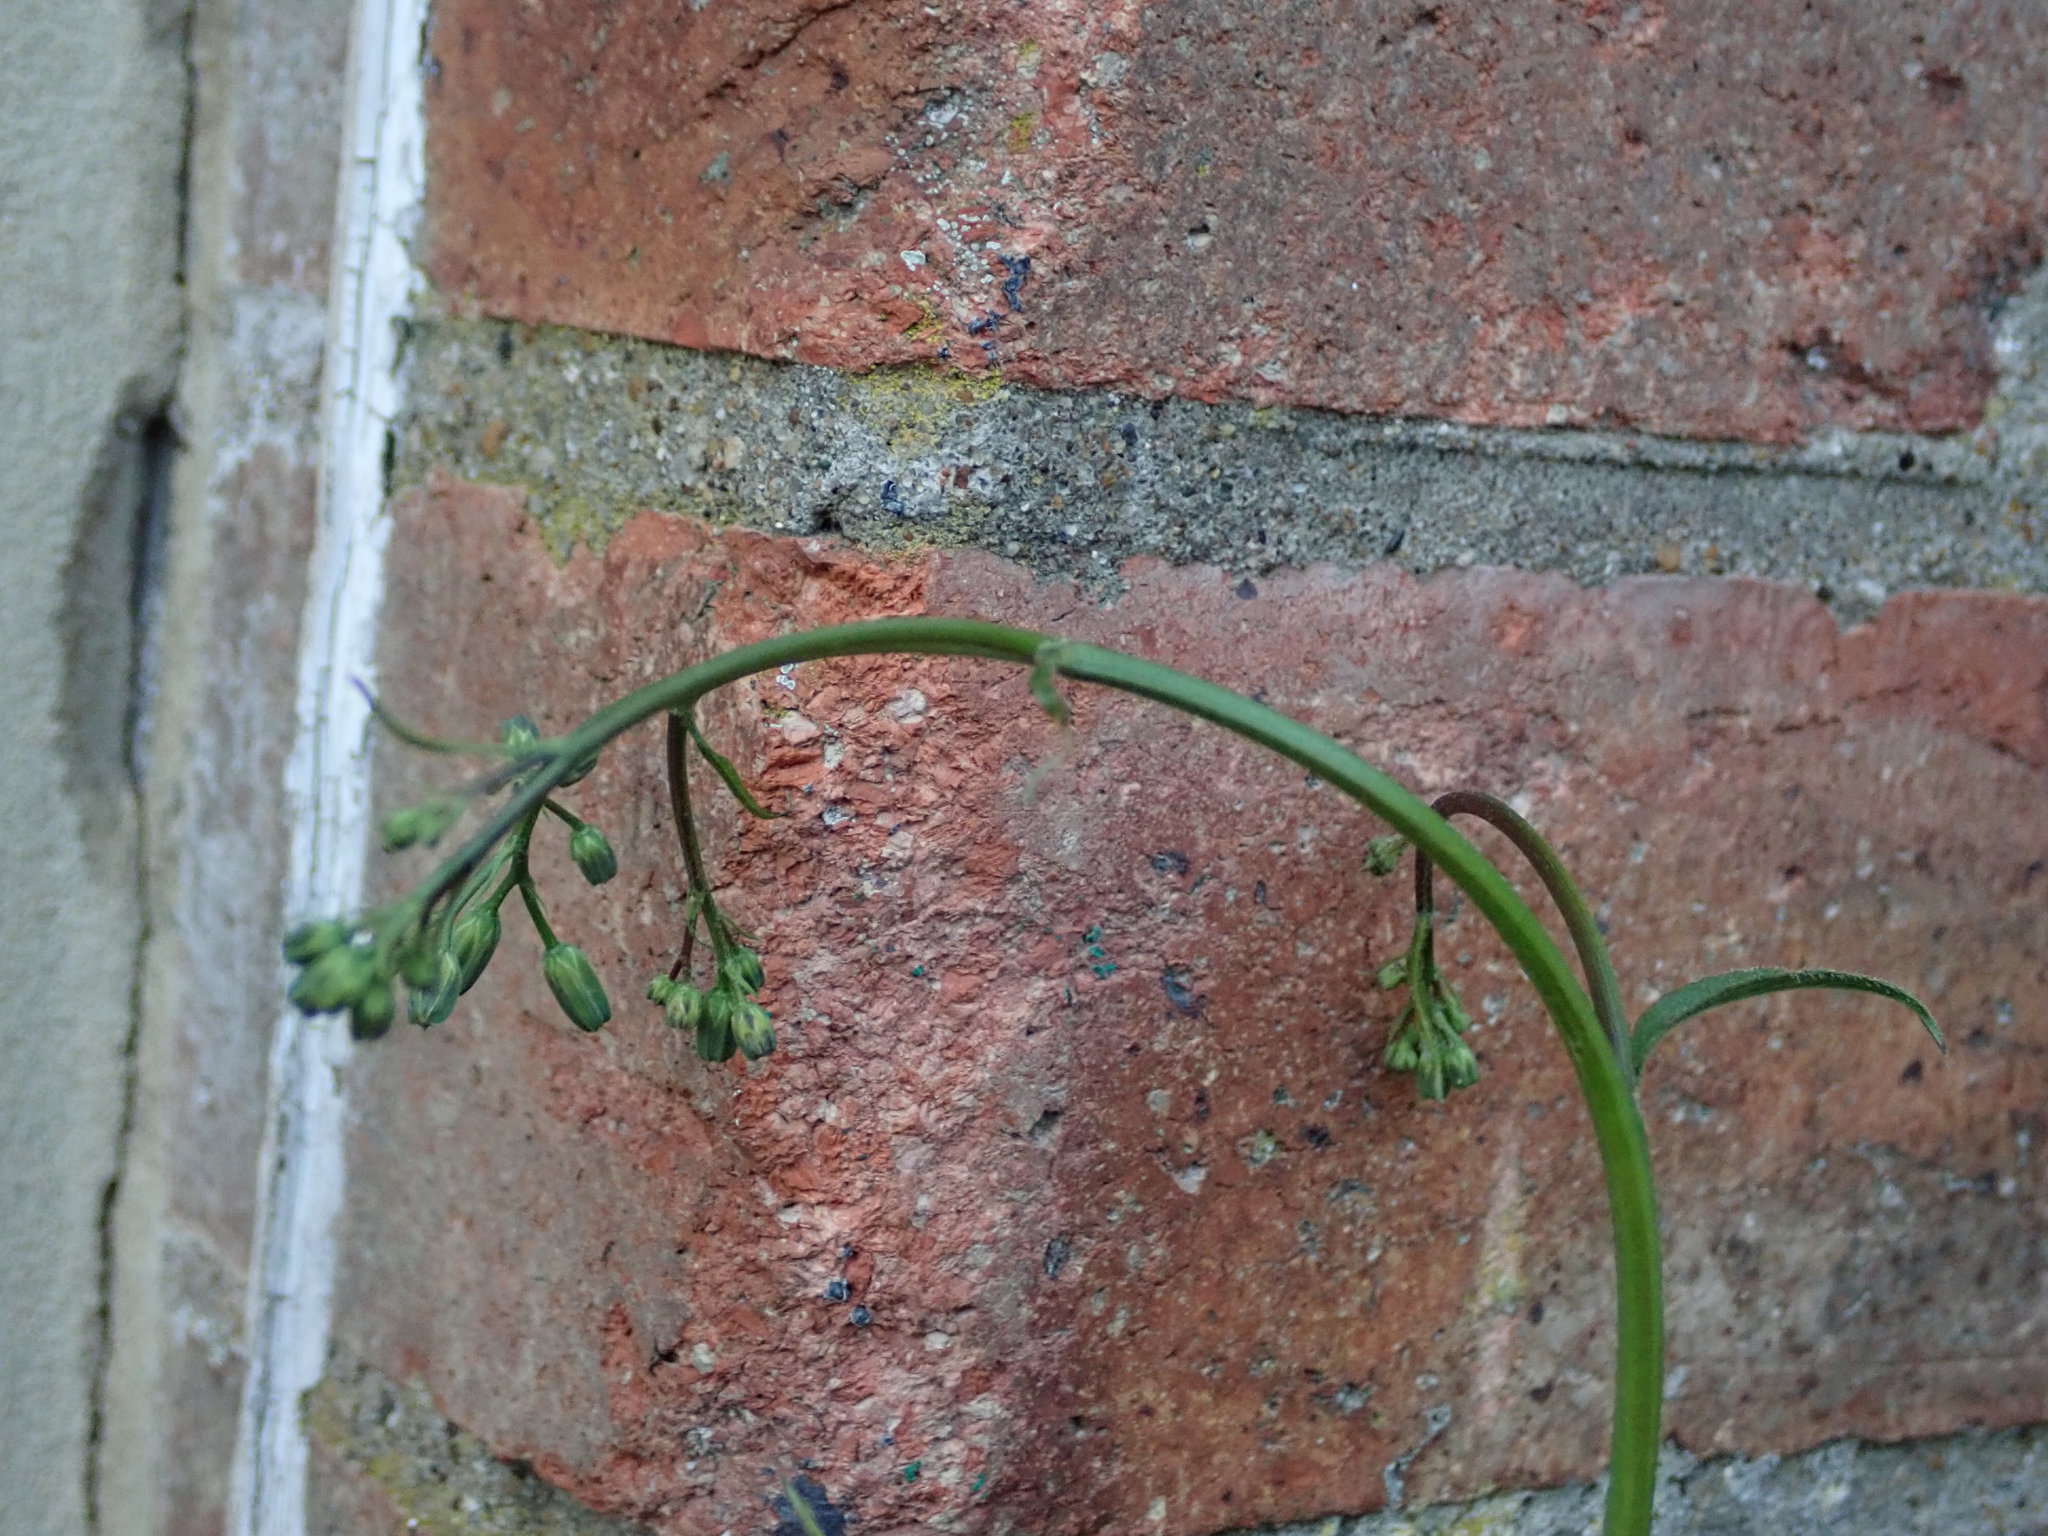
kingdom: Plantae
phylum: Tracheophyta
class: Magnoliopsida
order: Asterales
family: Asteraceae
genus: Lapsana
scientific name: Lapsana communis
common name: Nipplewort
